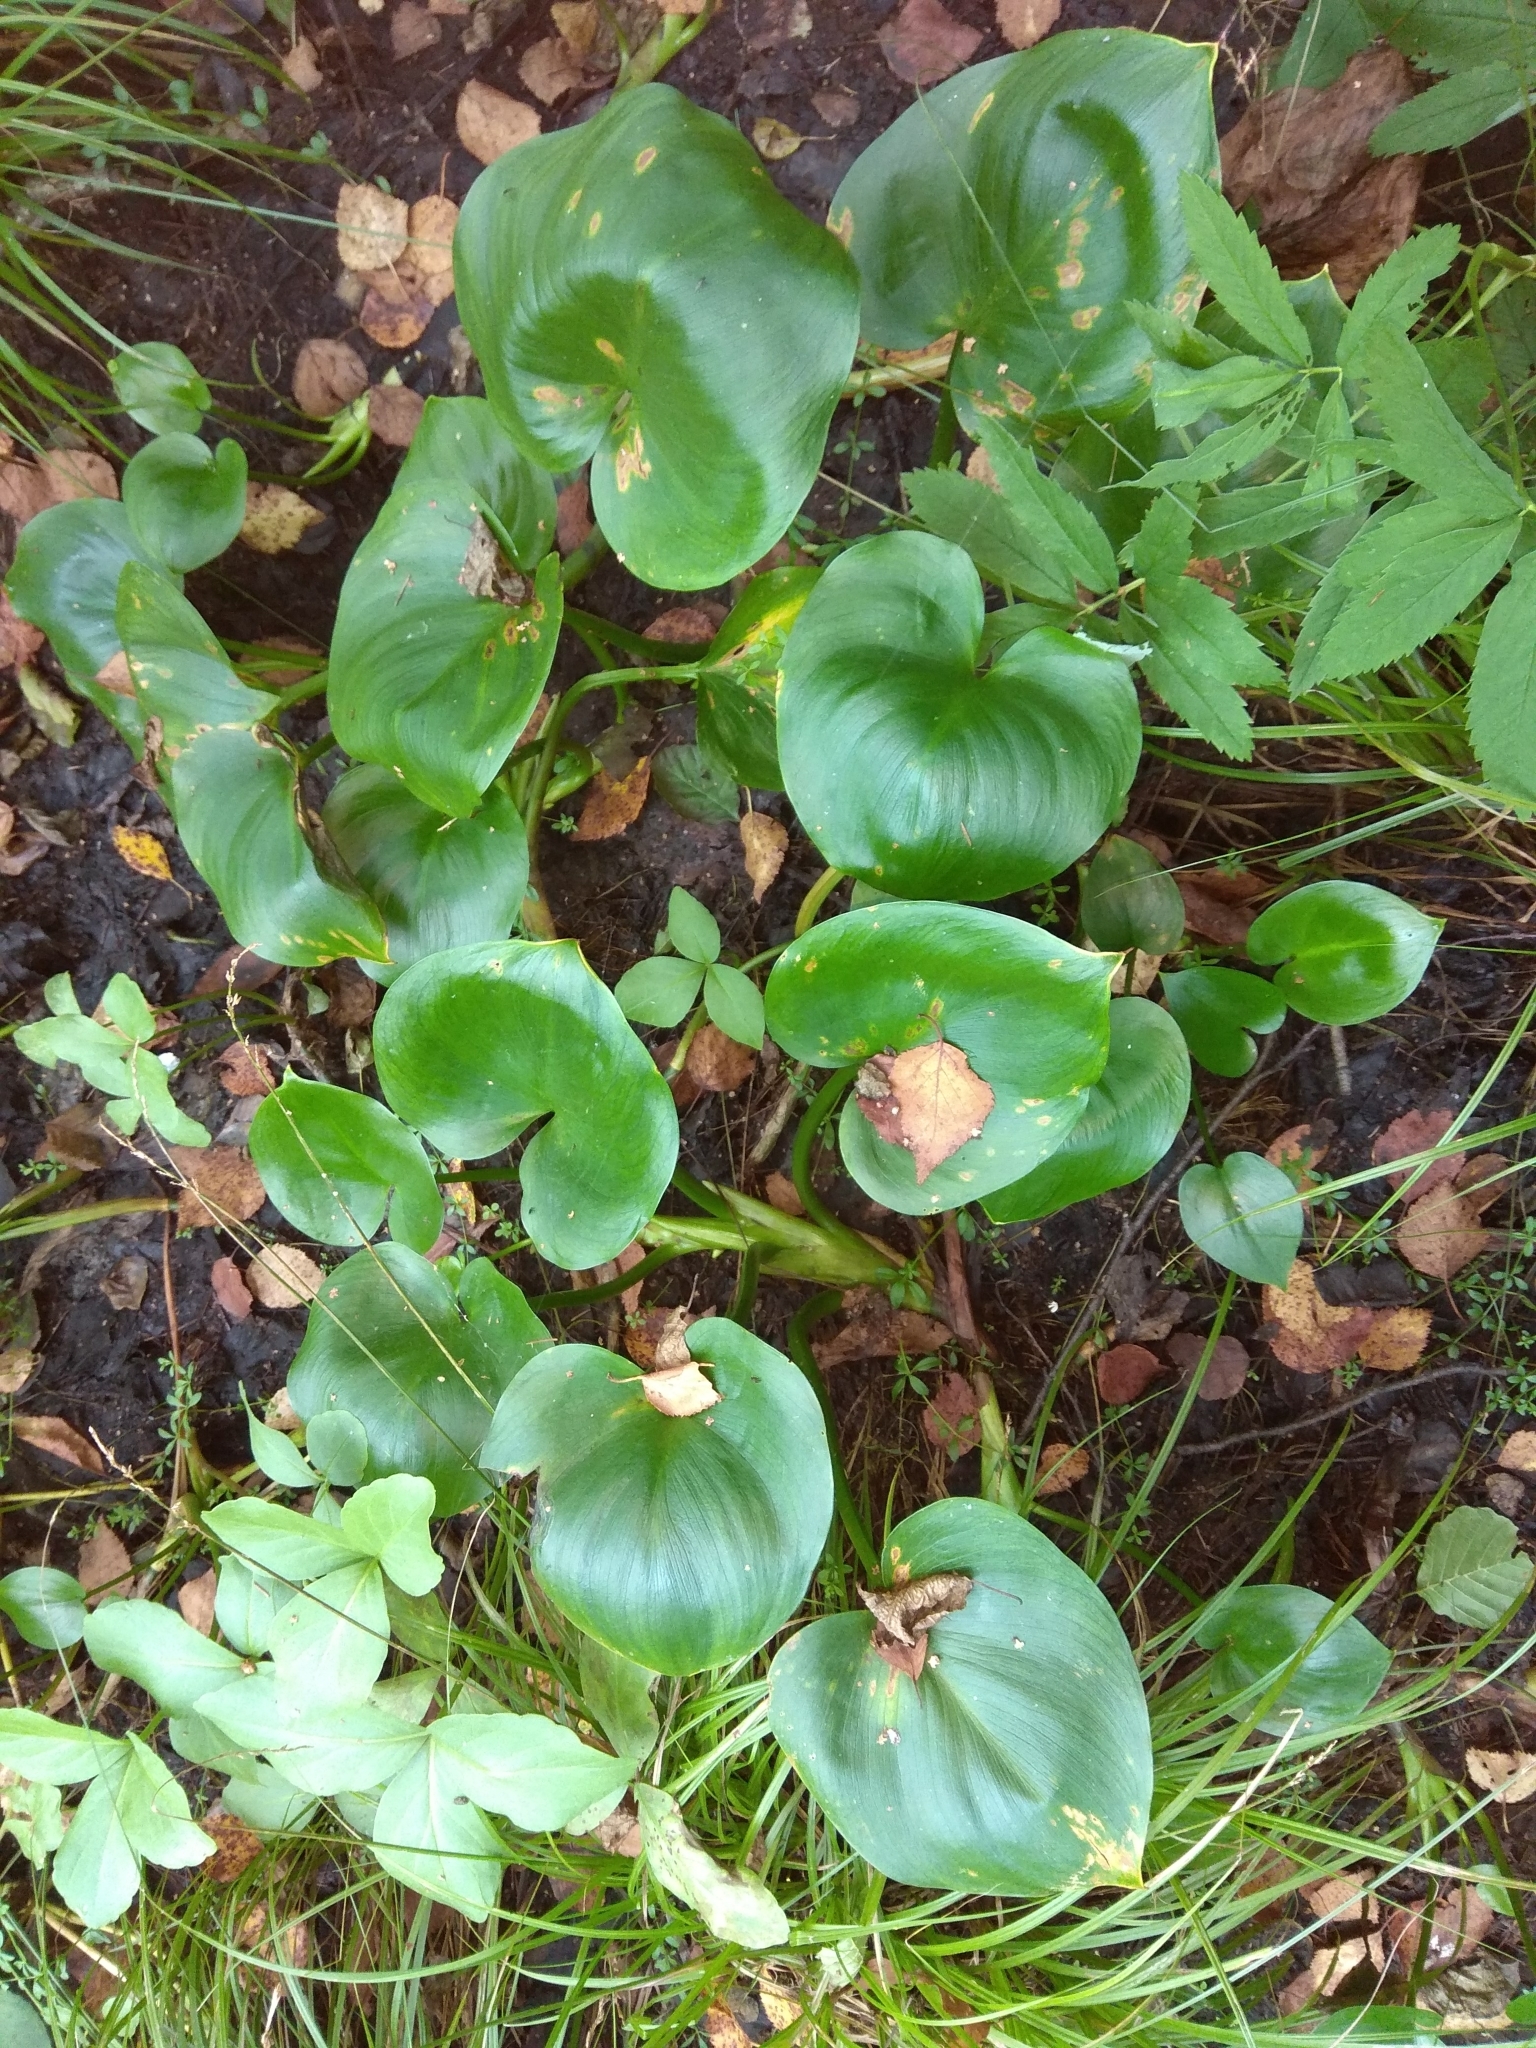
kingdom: Plantae
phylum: Tracheophyta
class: Liliopsida
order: Alismatales
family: Araceae
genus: Calla
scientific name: Calla palustris
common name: Bog arum
